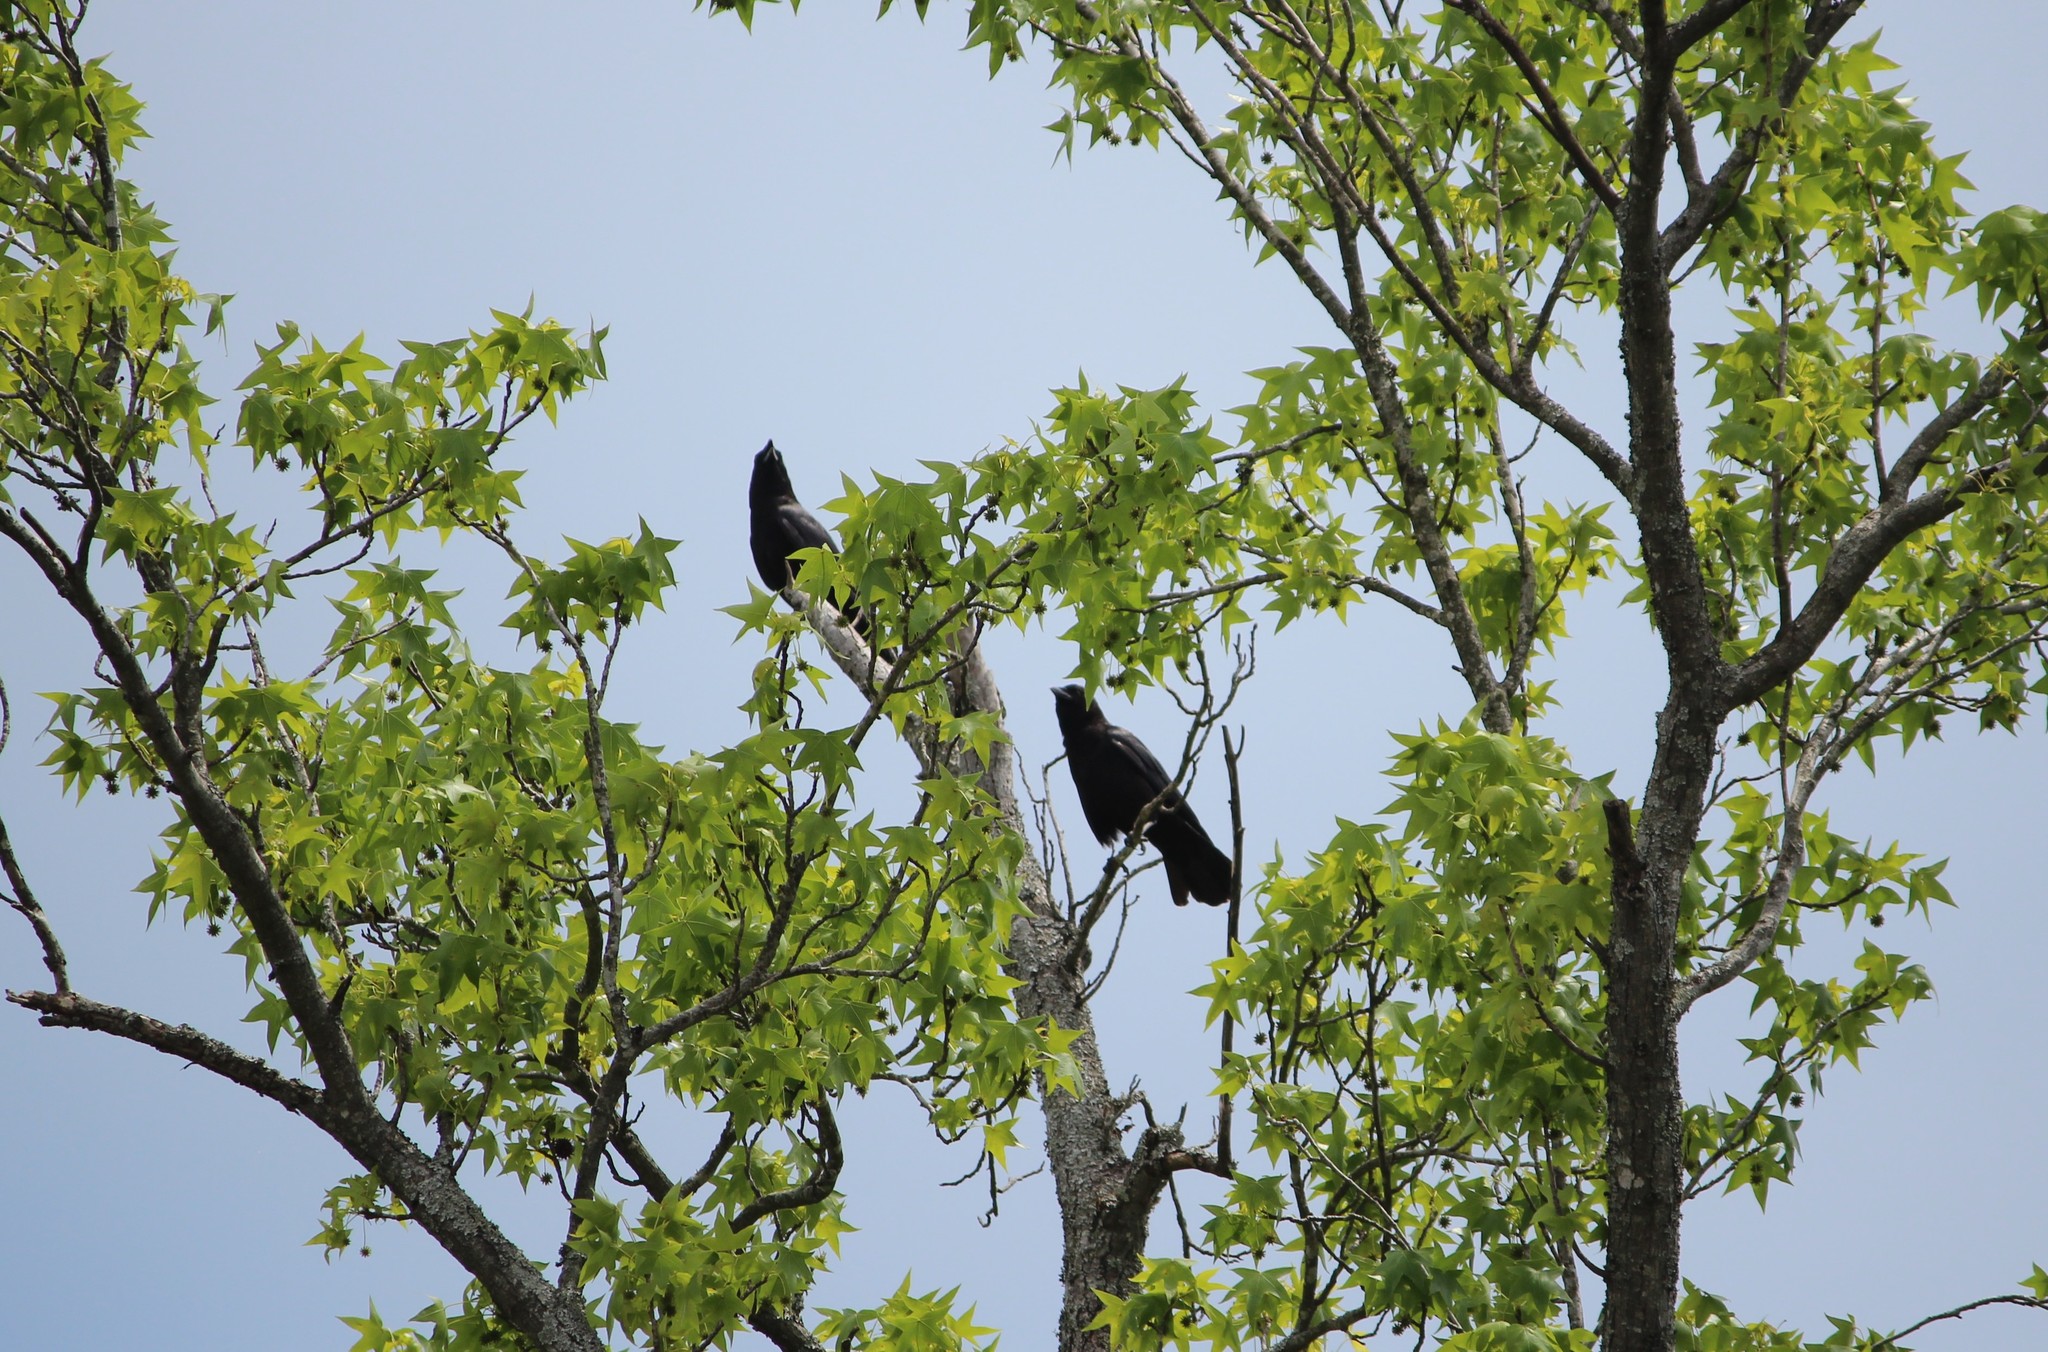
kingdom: Animalia
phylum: Chordata
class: Aves
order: Passeriformes
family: Corvidae
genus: Corvus
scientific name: Corvus brachyrhynchos
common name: American crow
